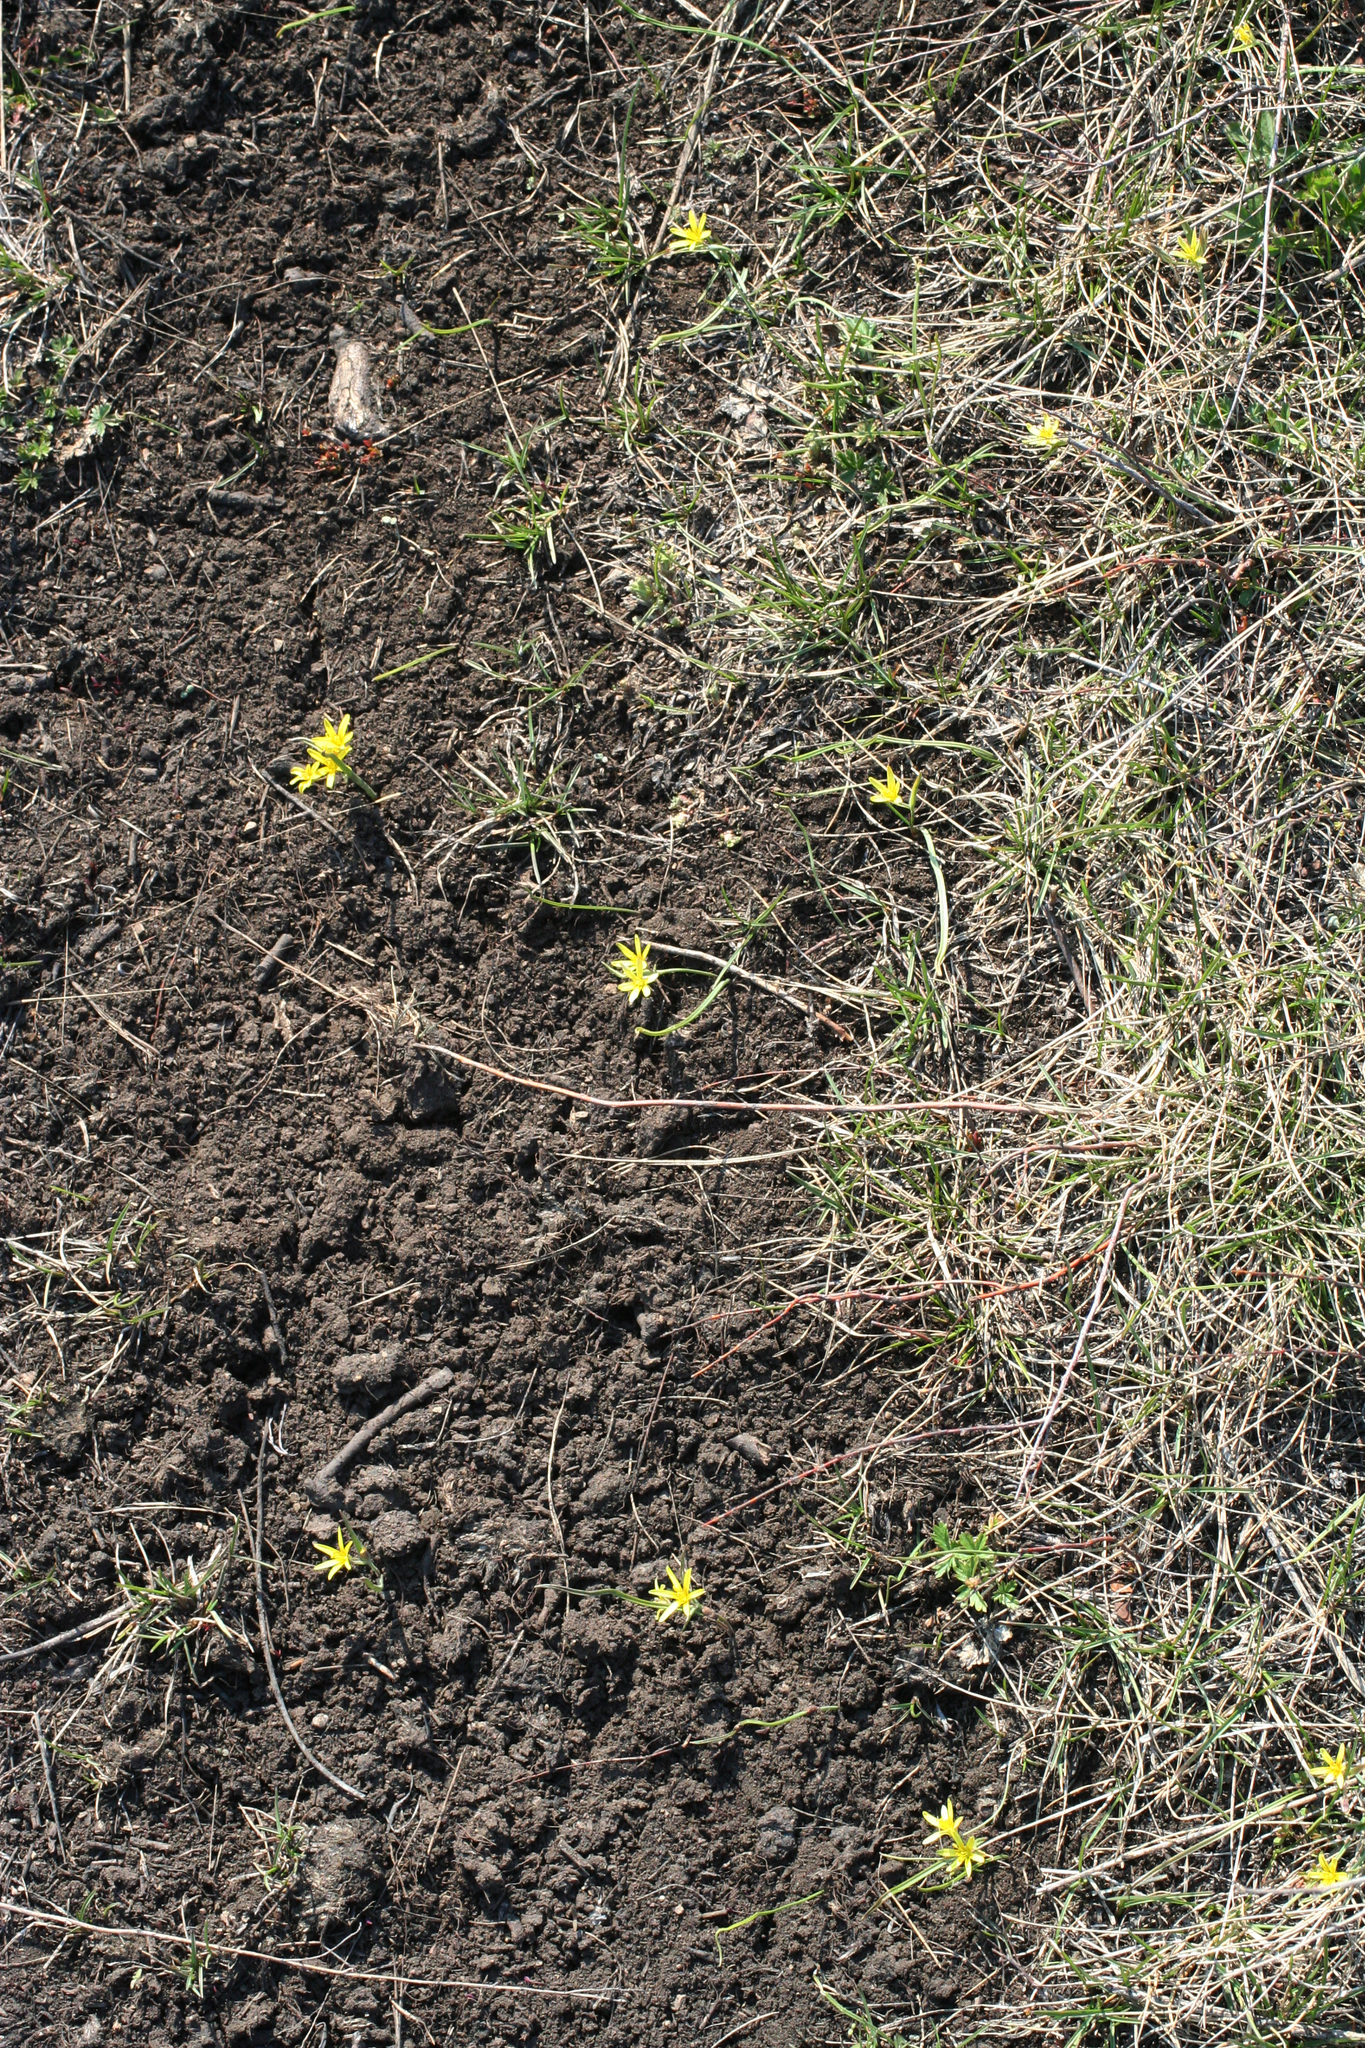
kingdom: Plantae
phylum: Tracheophyta
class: Liliopsida
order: Liliales
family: Liliaceae
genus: Gagea
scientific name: Gagea fedtschenkoana
